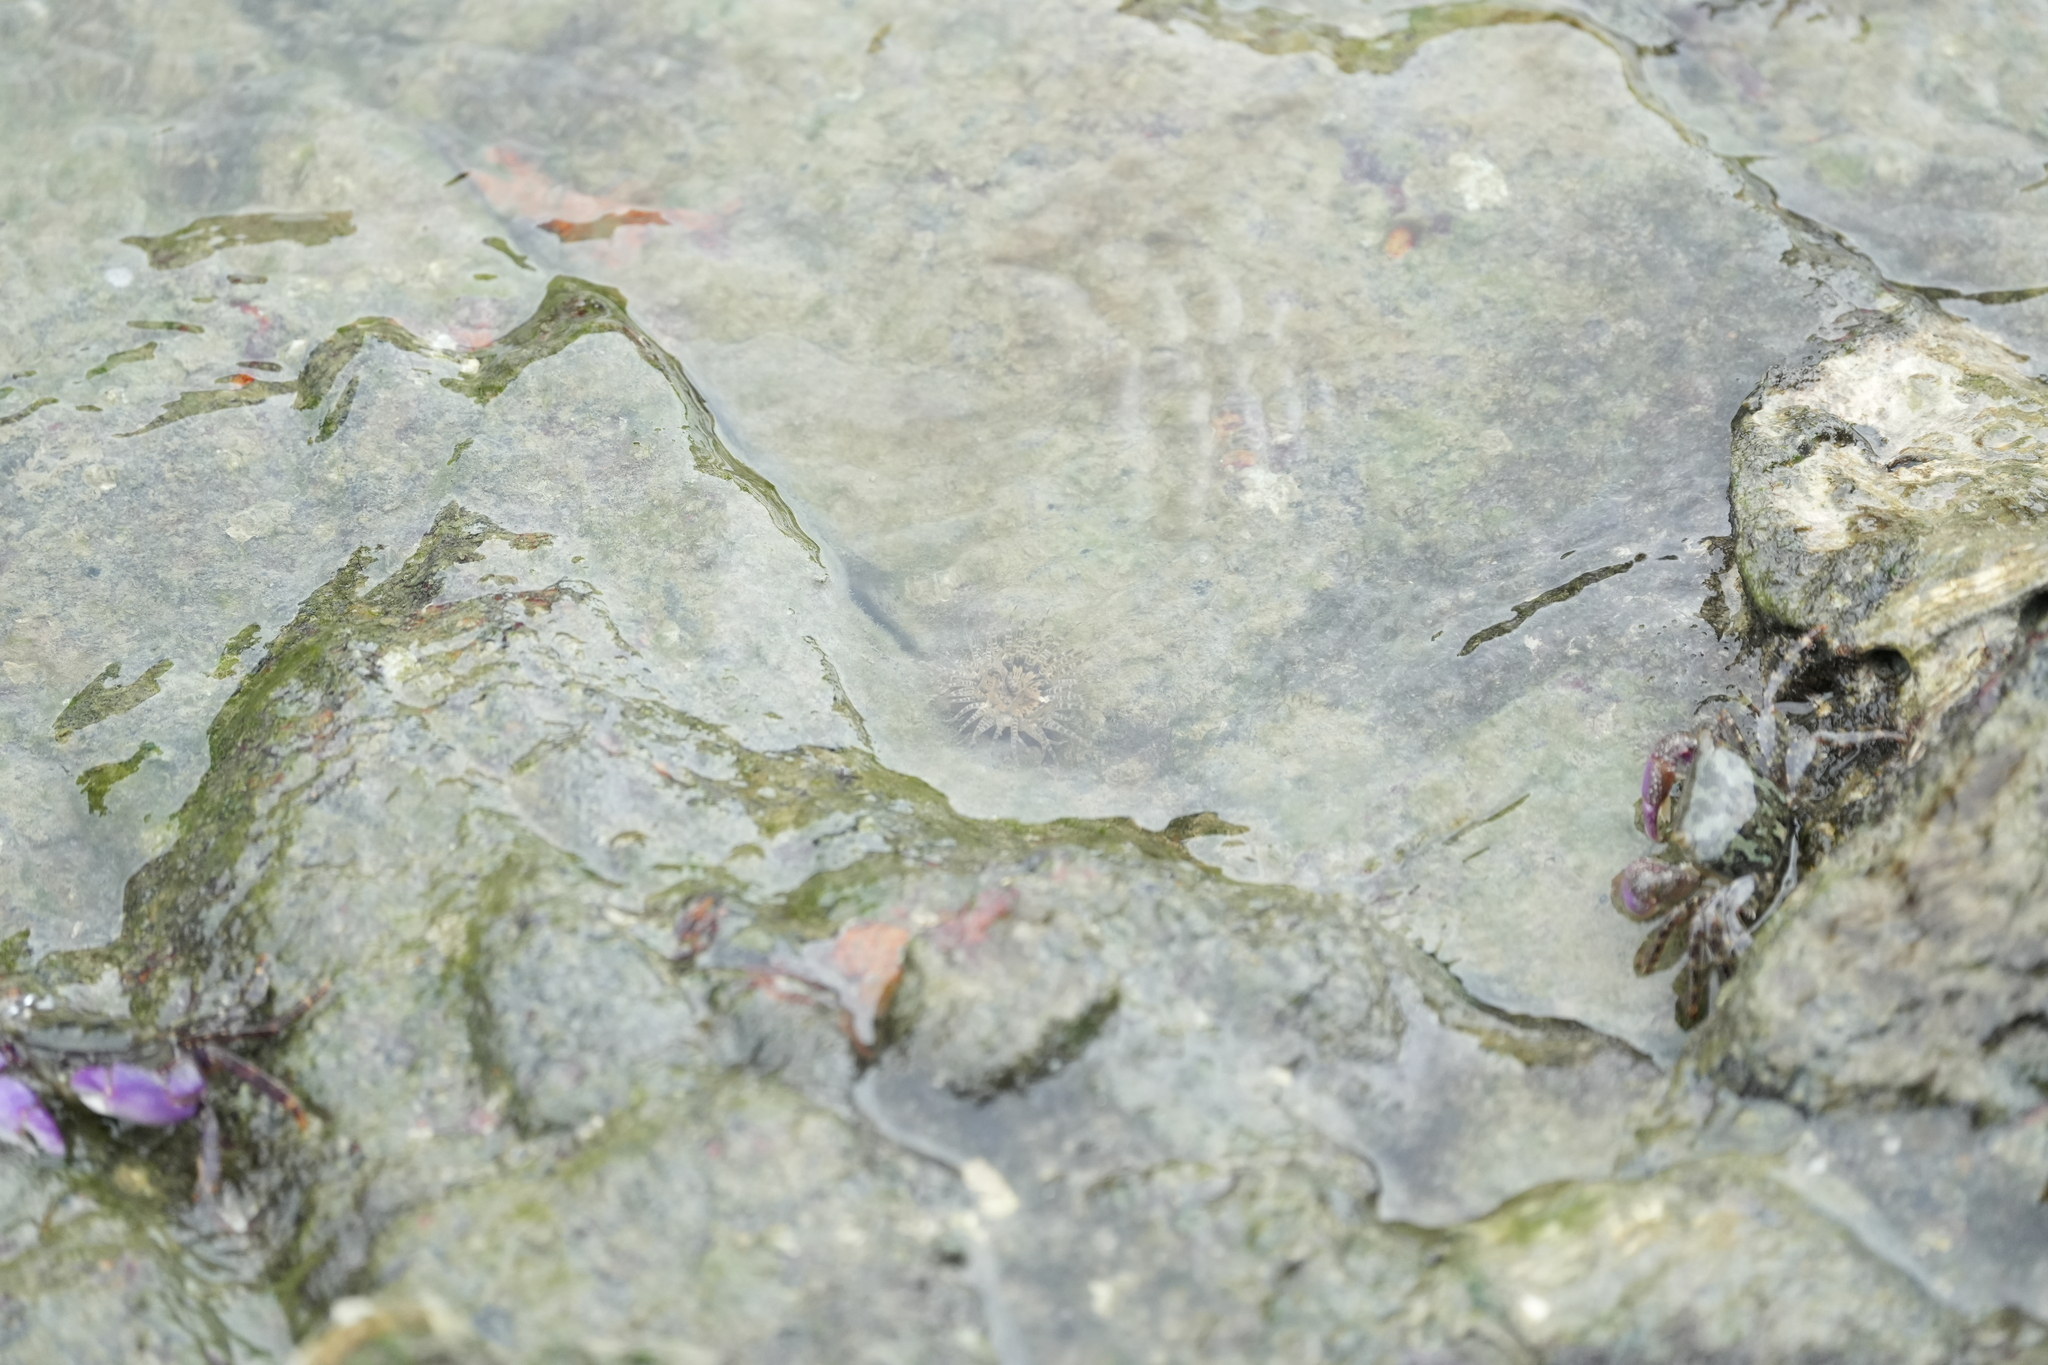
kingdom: Animalia
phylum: Cnidaria
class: Anthozoa
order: Actiniaria
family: Actiniidae
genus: Anthopleura
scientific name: Anthopleura handi
